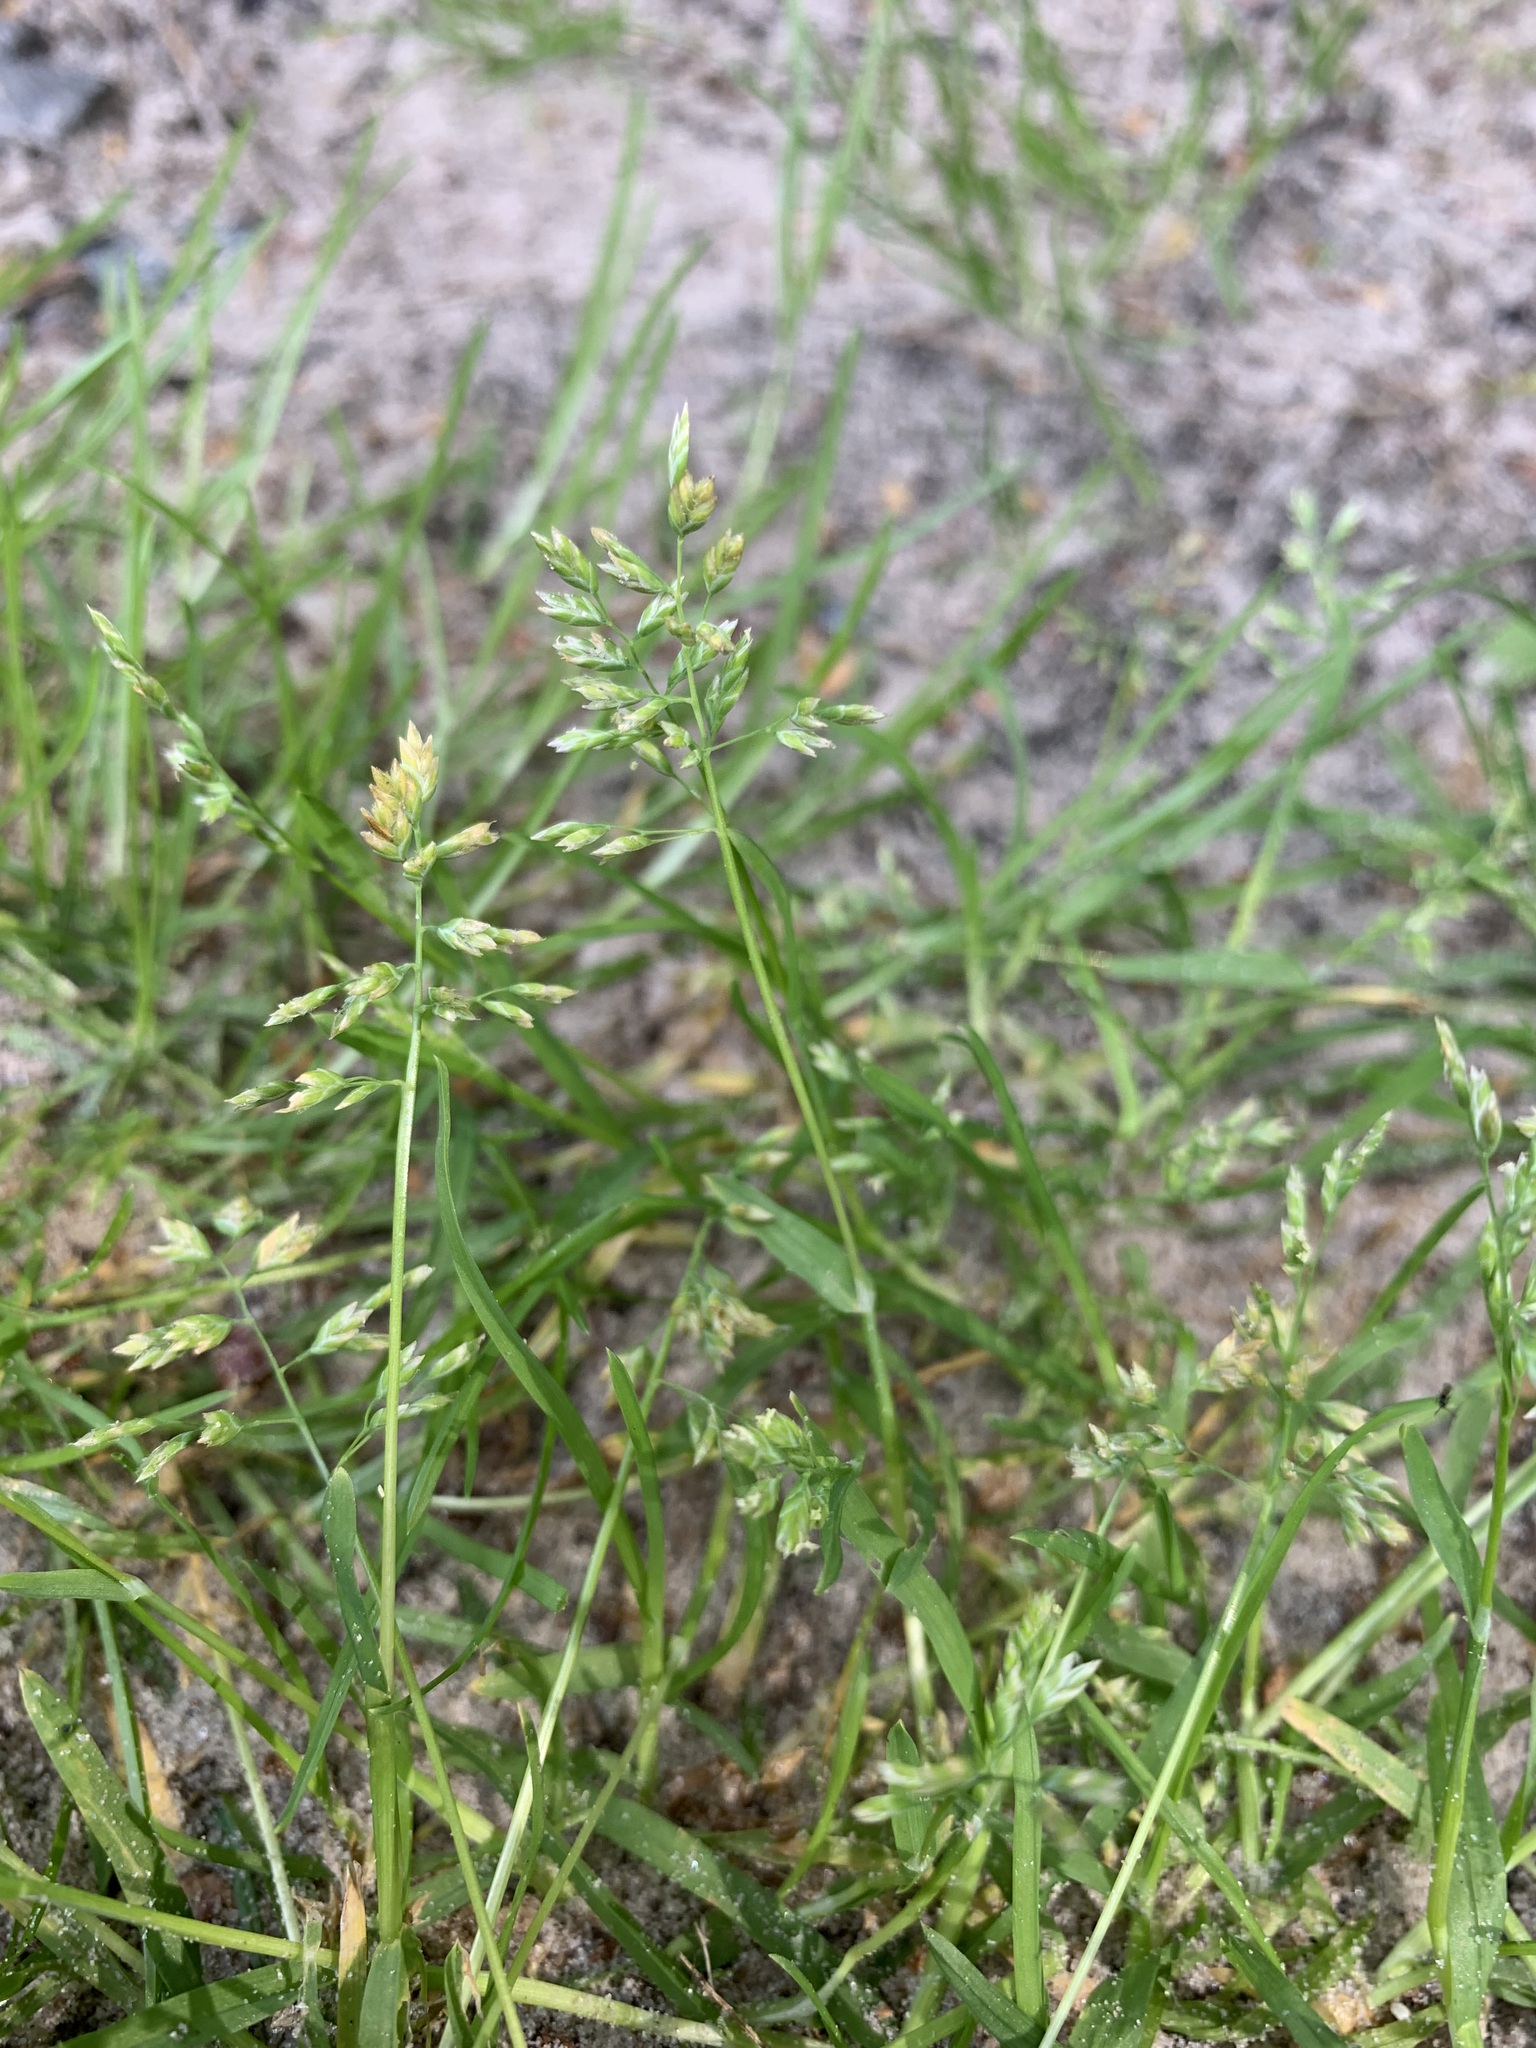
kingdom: Plantae
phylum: Tracheophyta
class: Liliopsida
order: Poales
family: Poaceae
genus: Poa
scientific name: Poa annua
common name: Annual bluegrass
